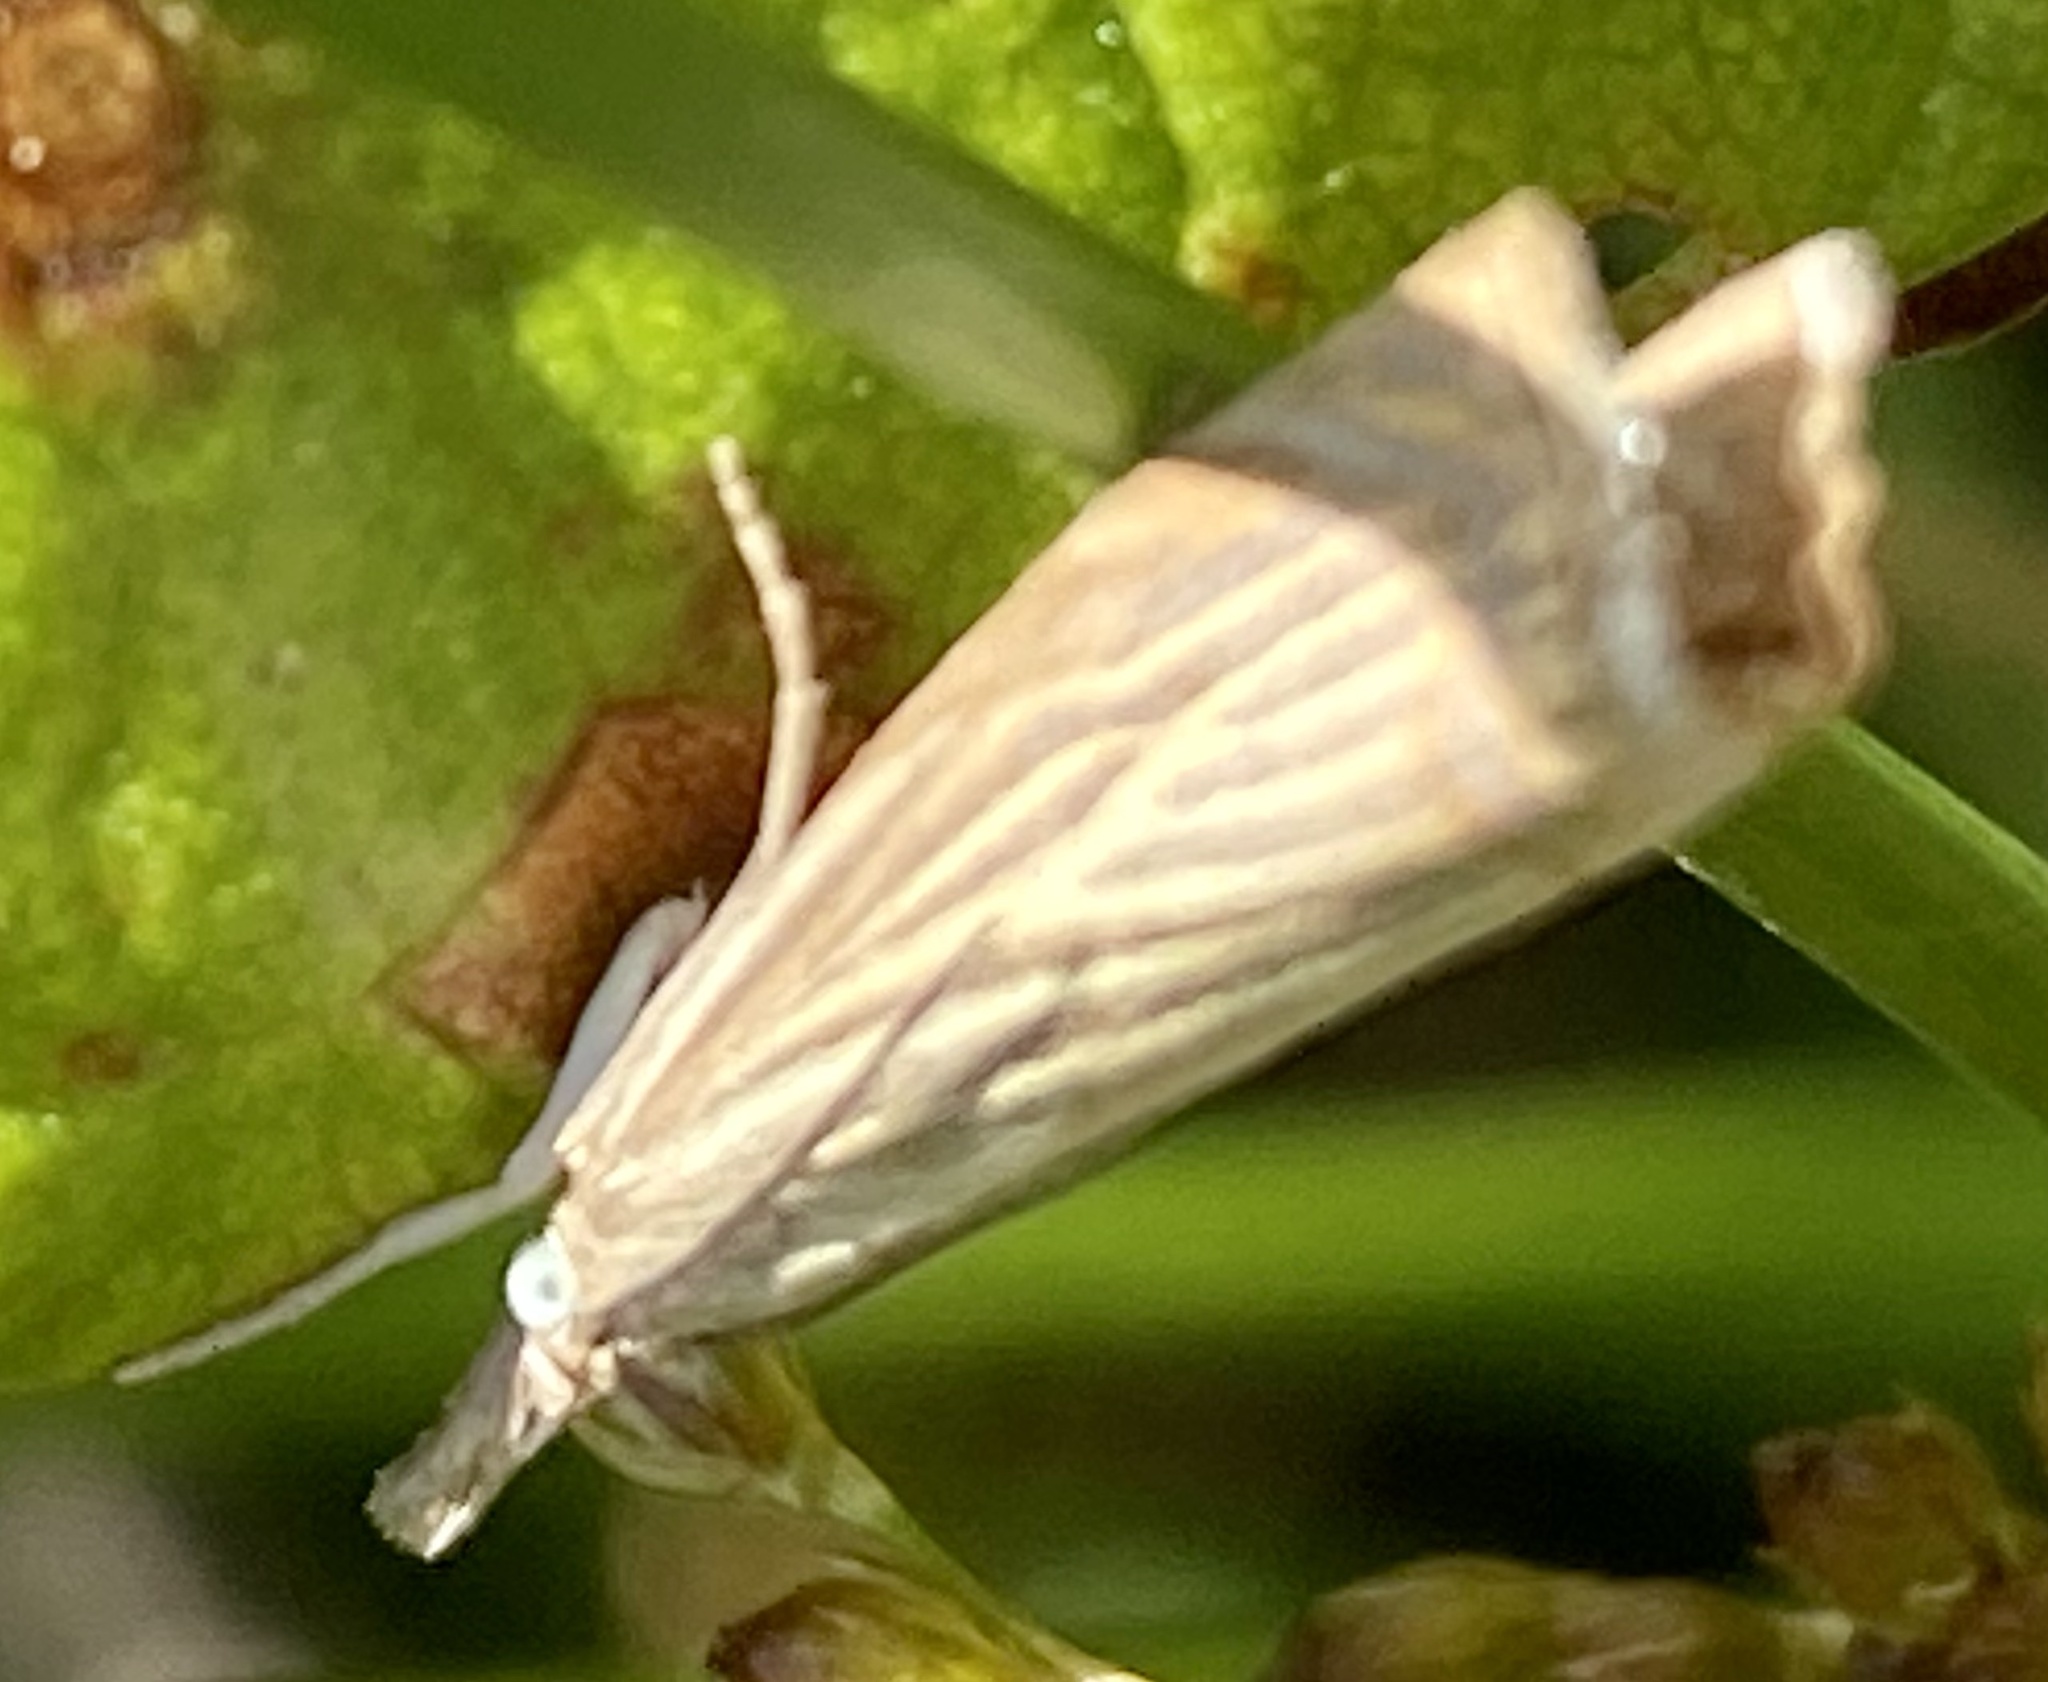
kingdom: Animalia
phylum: Arthropoda
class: Insecta
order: Lepidoptera
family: Crambidae
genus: Chrysoteuchia
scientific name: Chrysoteuchia culmella
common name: Garden grass-veneer
